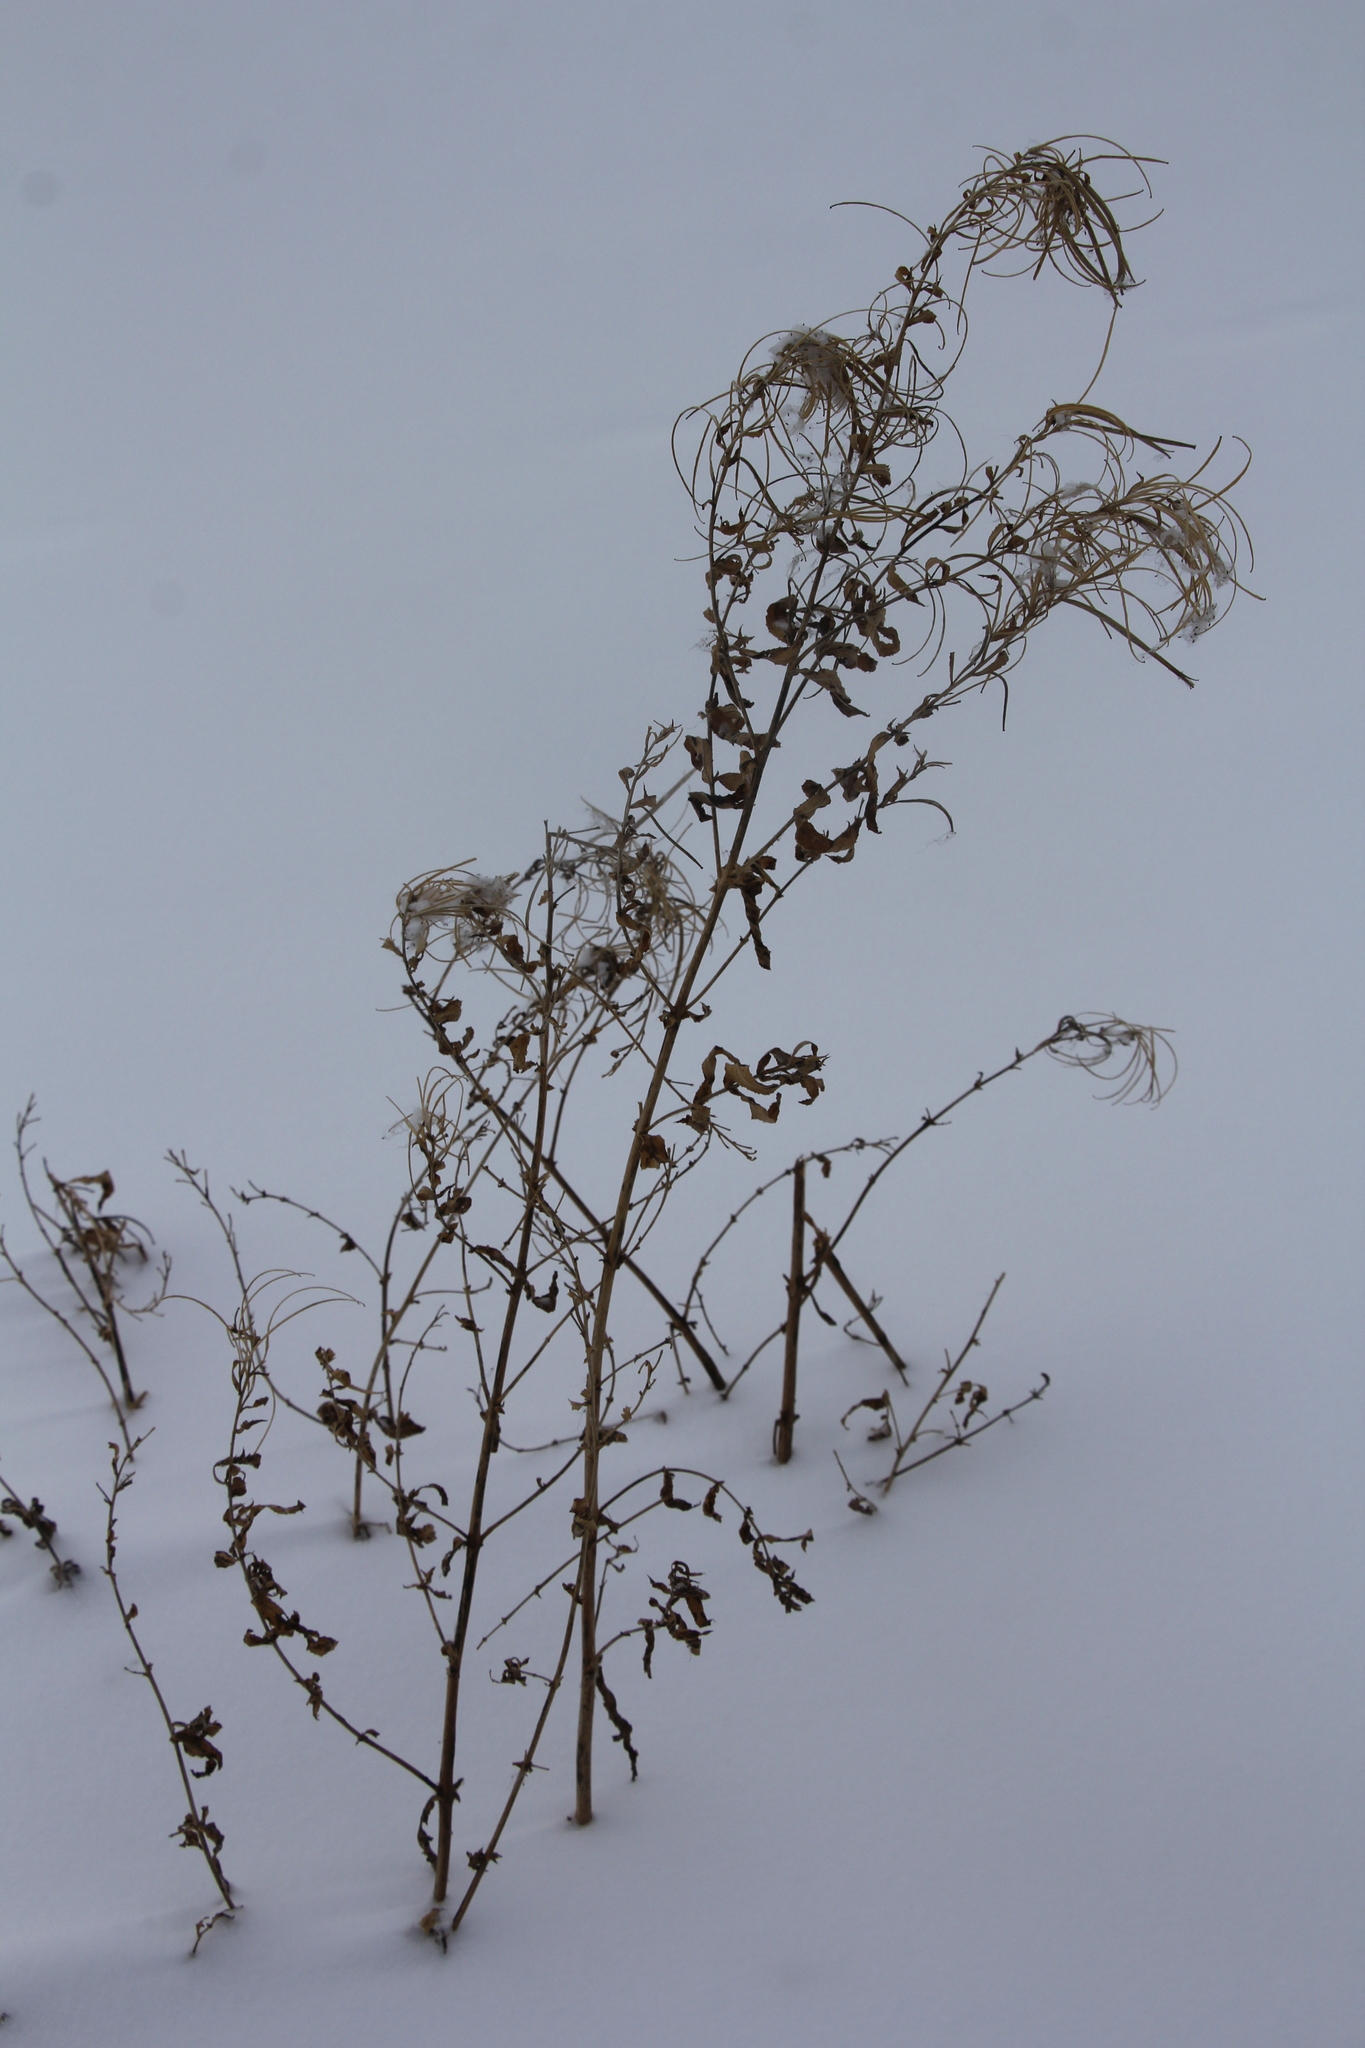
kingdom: Plantae
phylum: Tracheophyta
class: Magnoliopsida
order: Myrtales
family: Onagraceae
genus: Chamaenerion
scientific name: Chamaenerion angustifolium
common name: Fireweed
